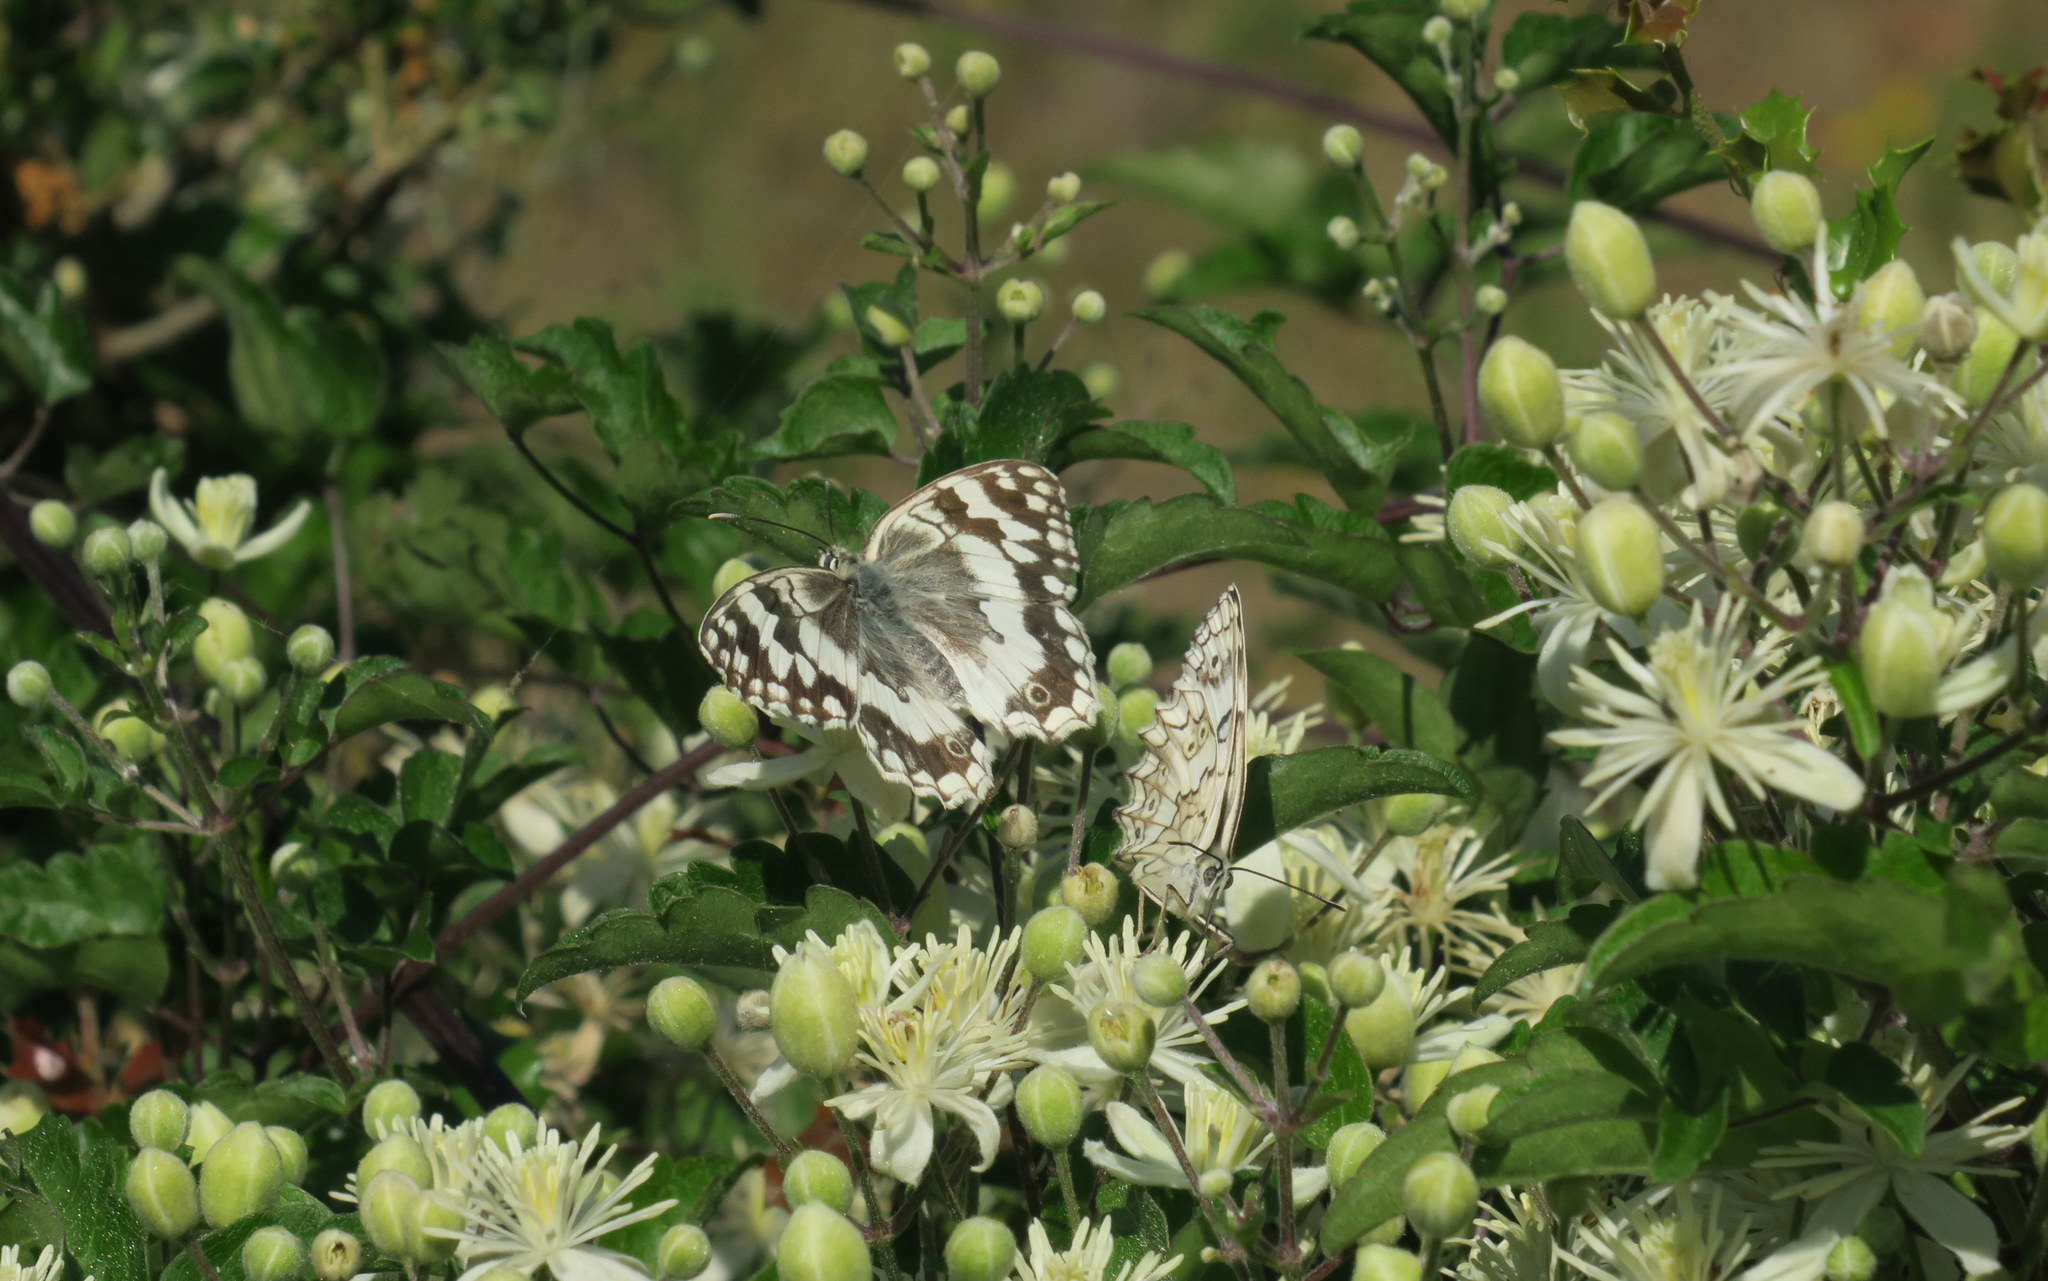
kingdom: Animalia
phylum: Arthropoda
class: Insecta
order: Lepidoptera
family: Nymphalidae
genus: Melanargia
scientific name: Melanargia larissa
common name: Balkan marbled white
